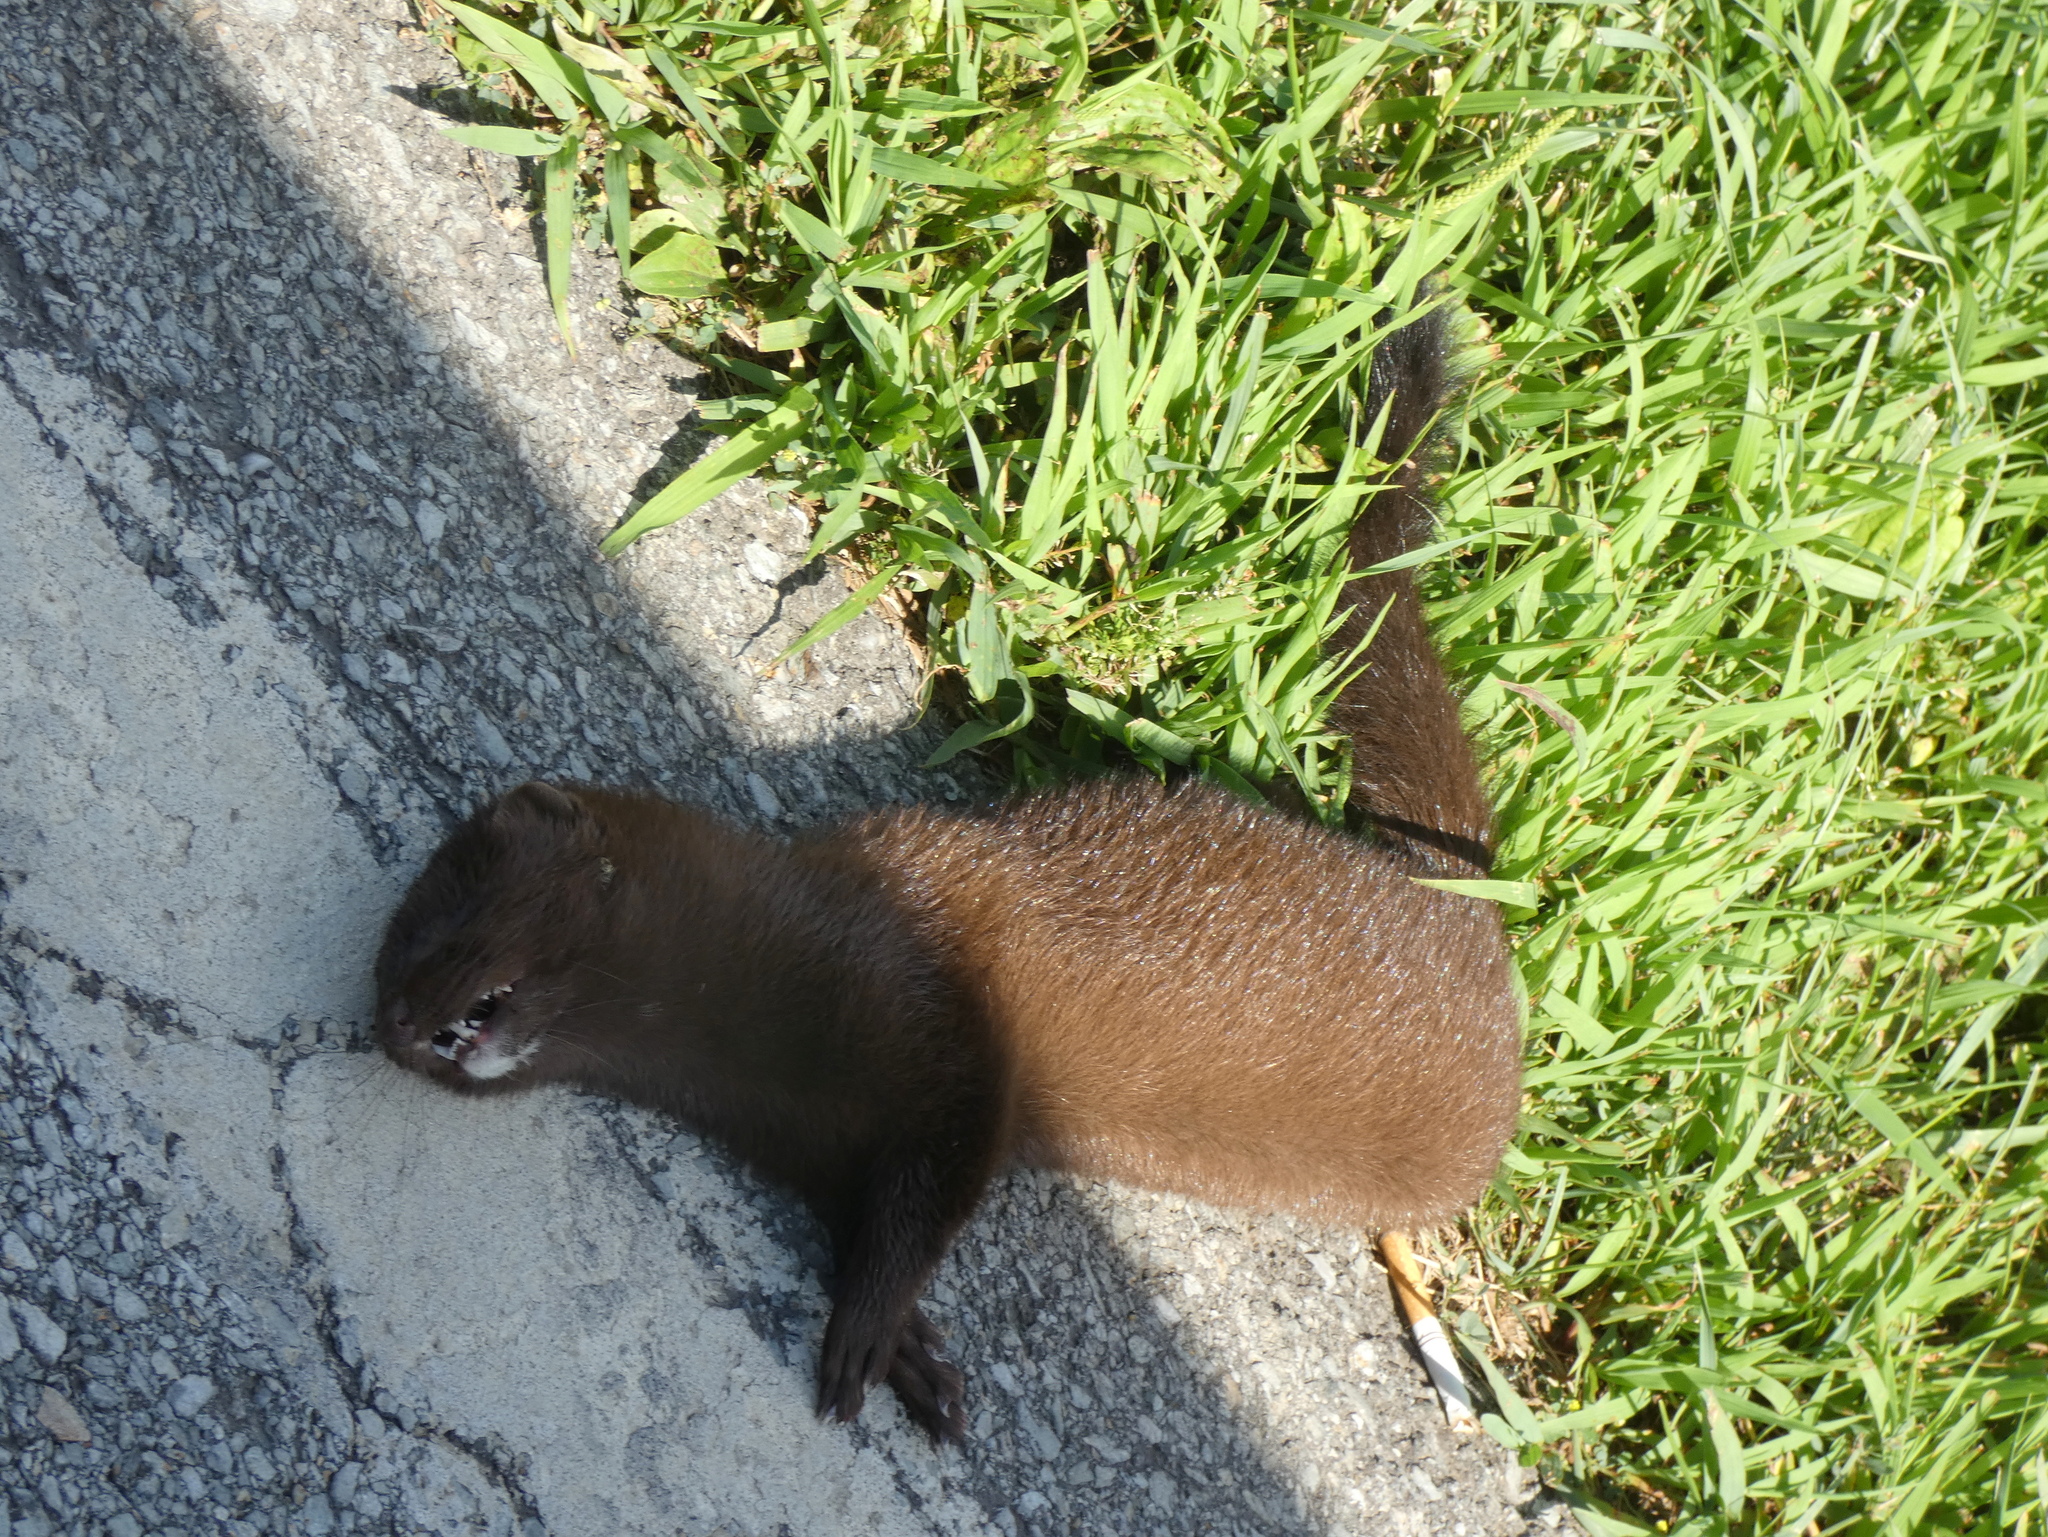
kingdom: Animalia
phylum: Chordata
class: Mammalia
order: Carnivora
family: Mustelidae
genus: Mustela
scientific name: Mustela
